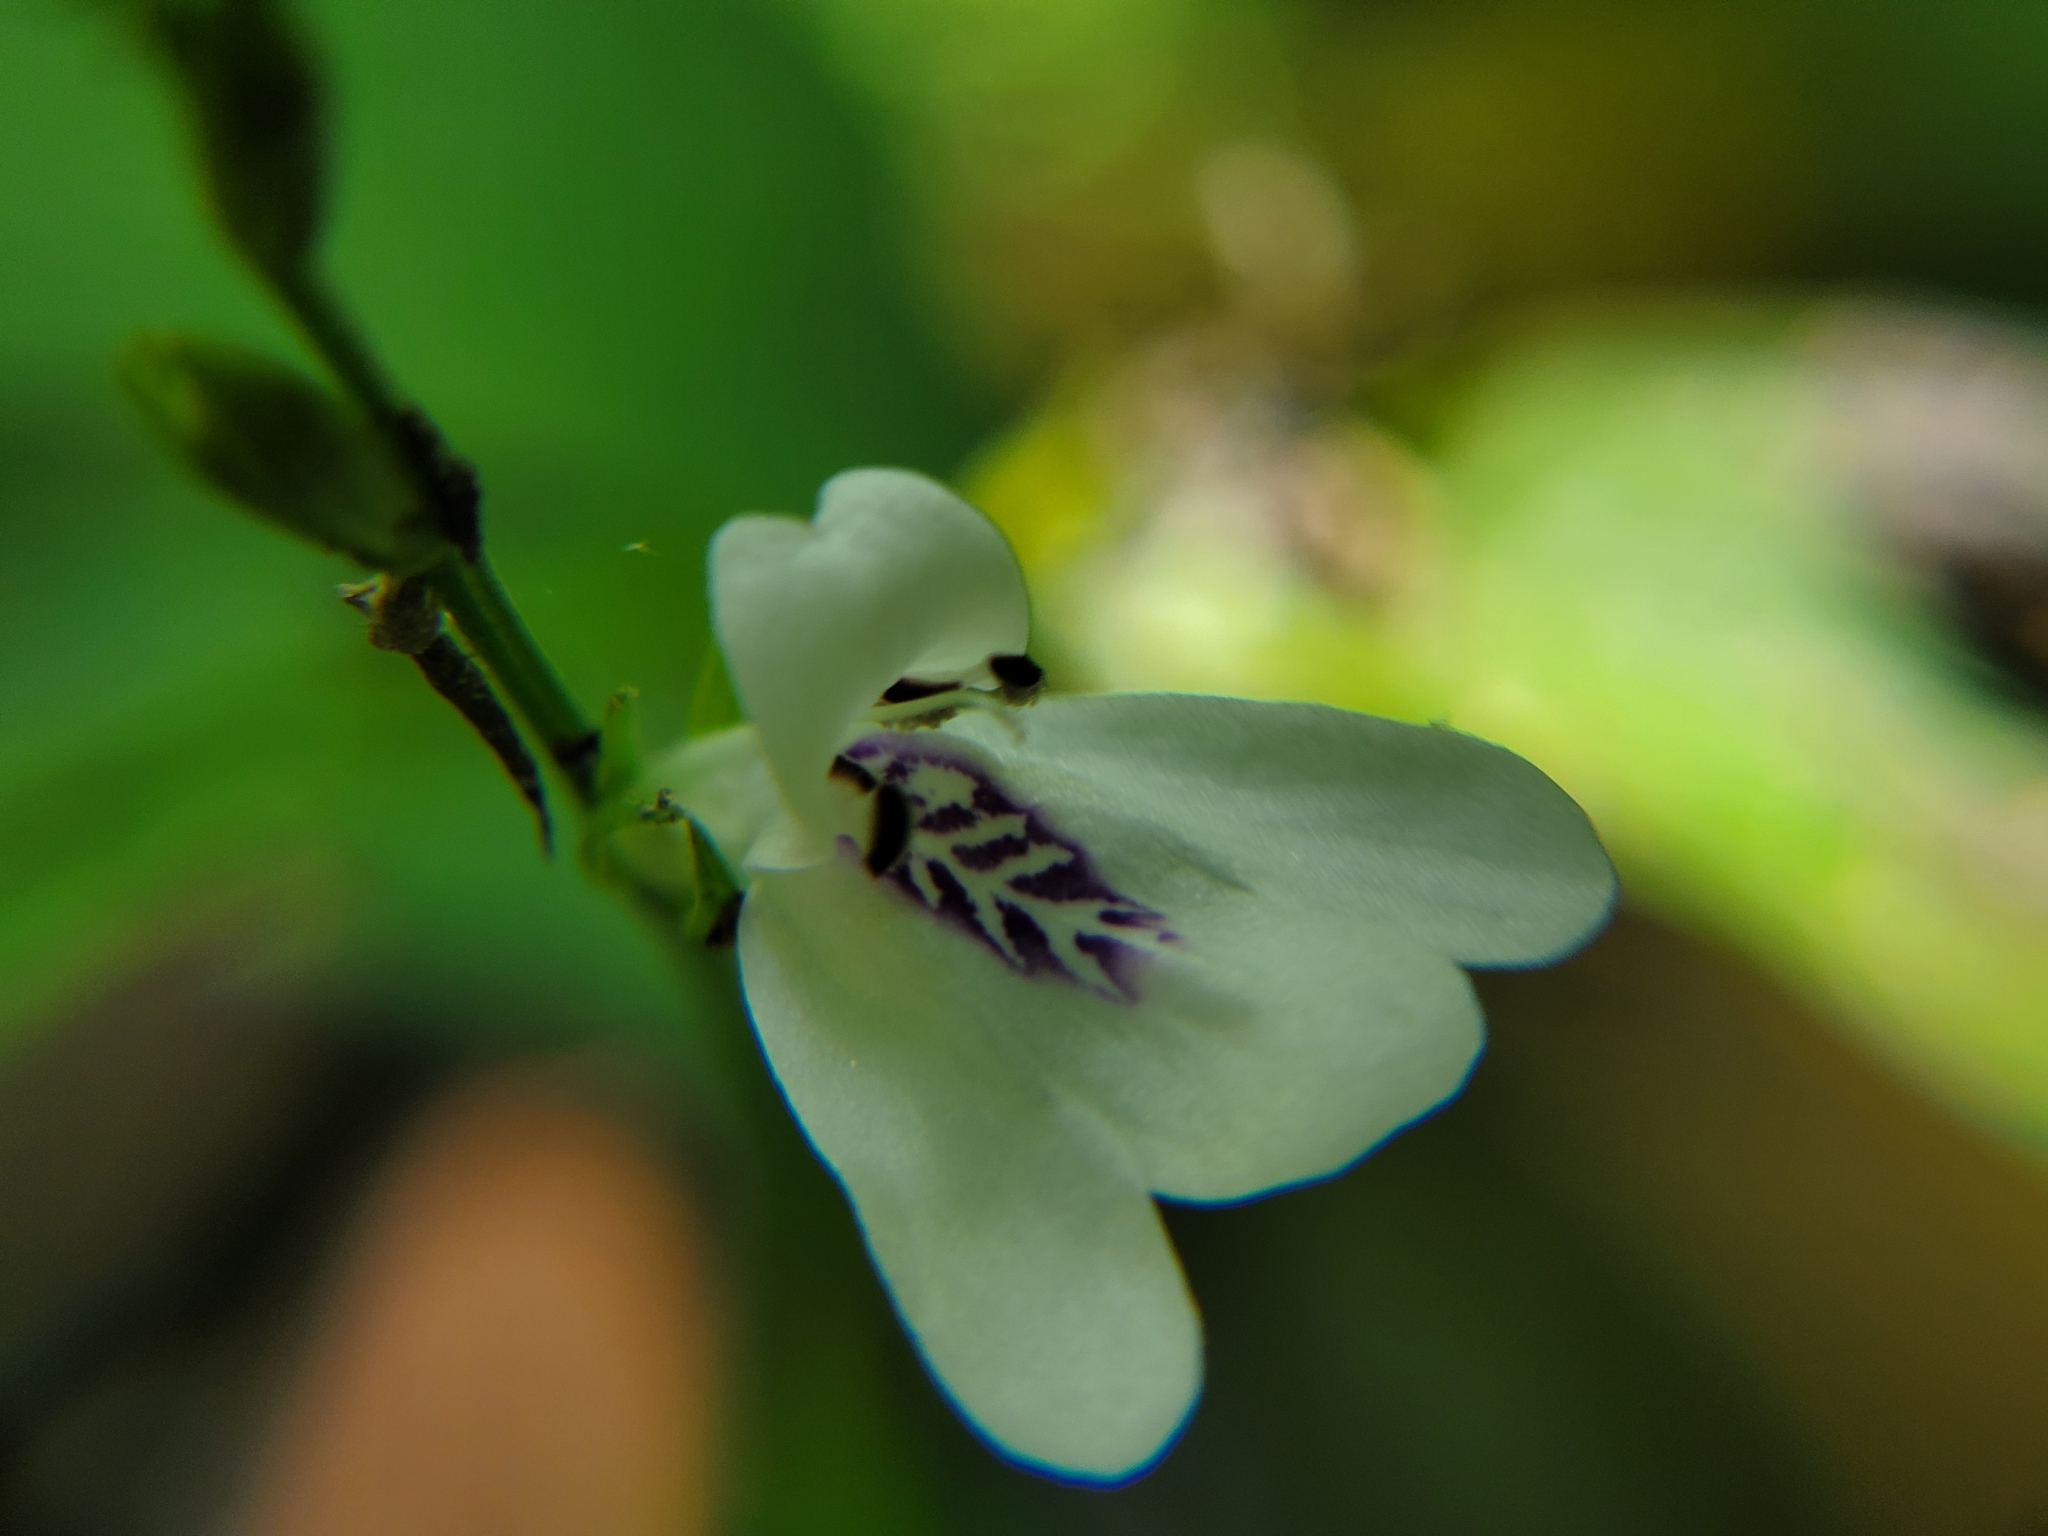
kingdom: Plantae
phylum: Tracheophyta
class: Magnoliopsida
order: Lamiales
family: Acanthaceae
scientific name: Acanthaceae
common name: Acanthaceae
